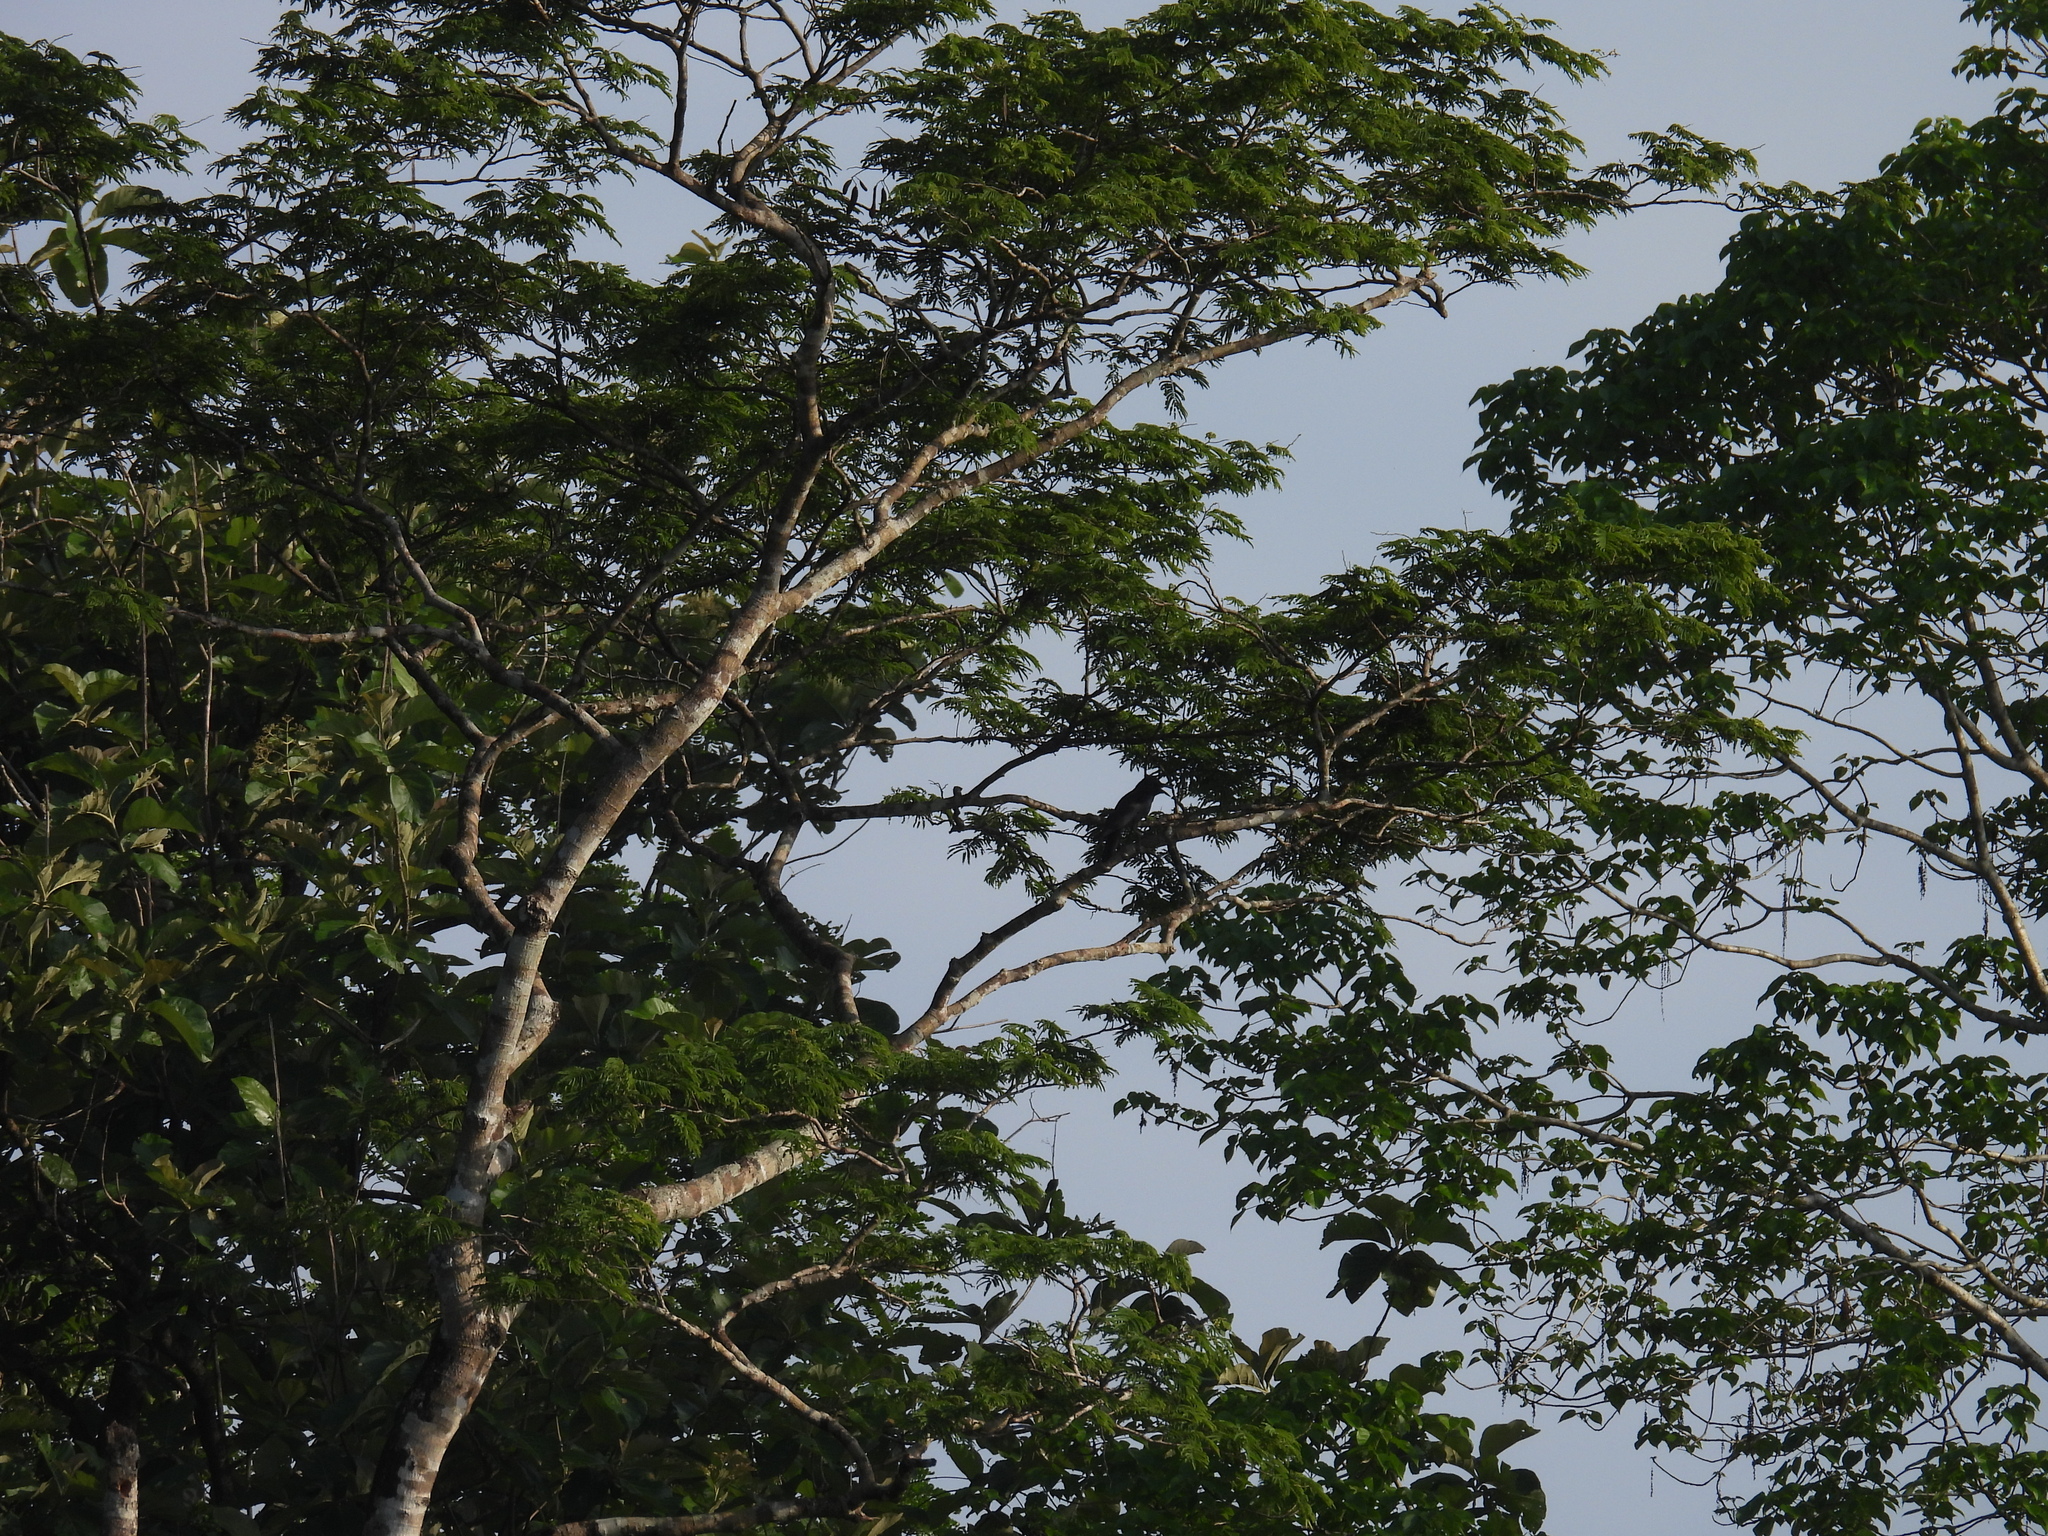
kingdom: Animalia
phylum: Chordata
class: Aves
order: Passeriformes
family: Corvidae
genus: Corvus
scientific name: Corvus macrorhynchos
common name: Large-billed crow
